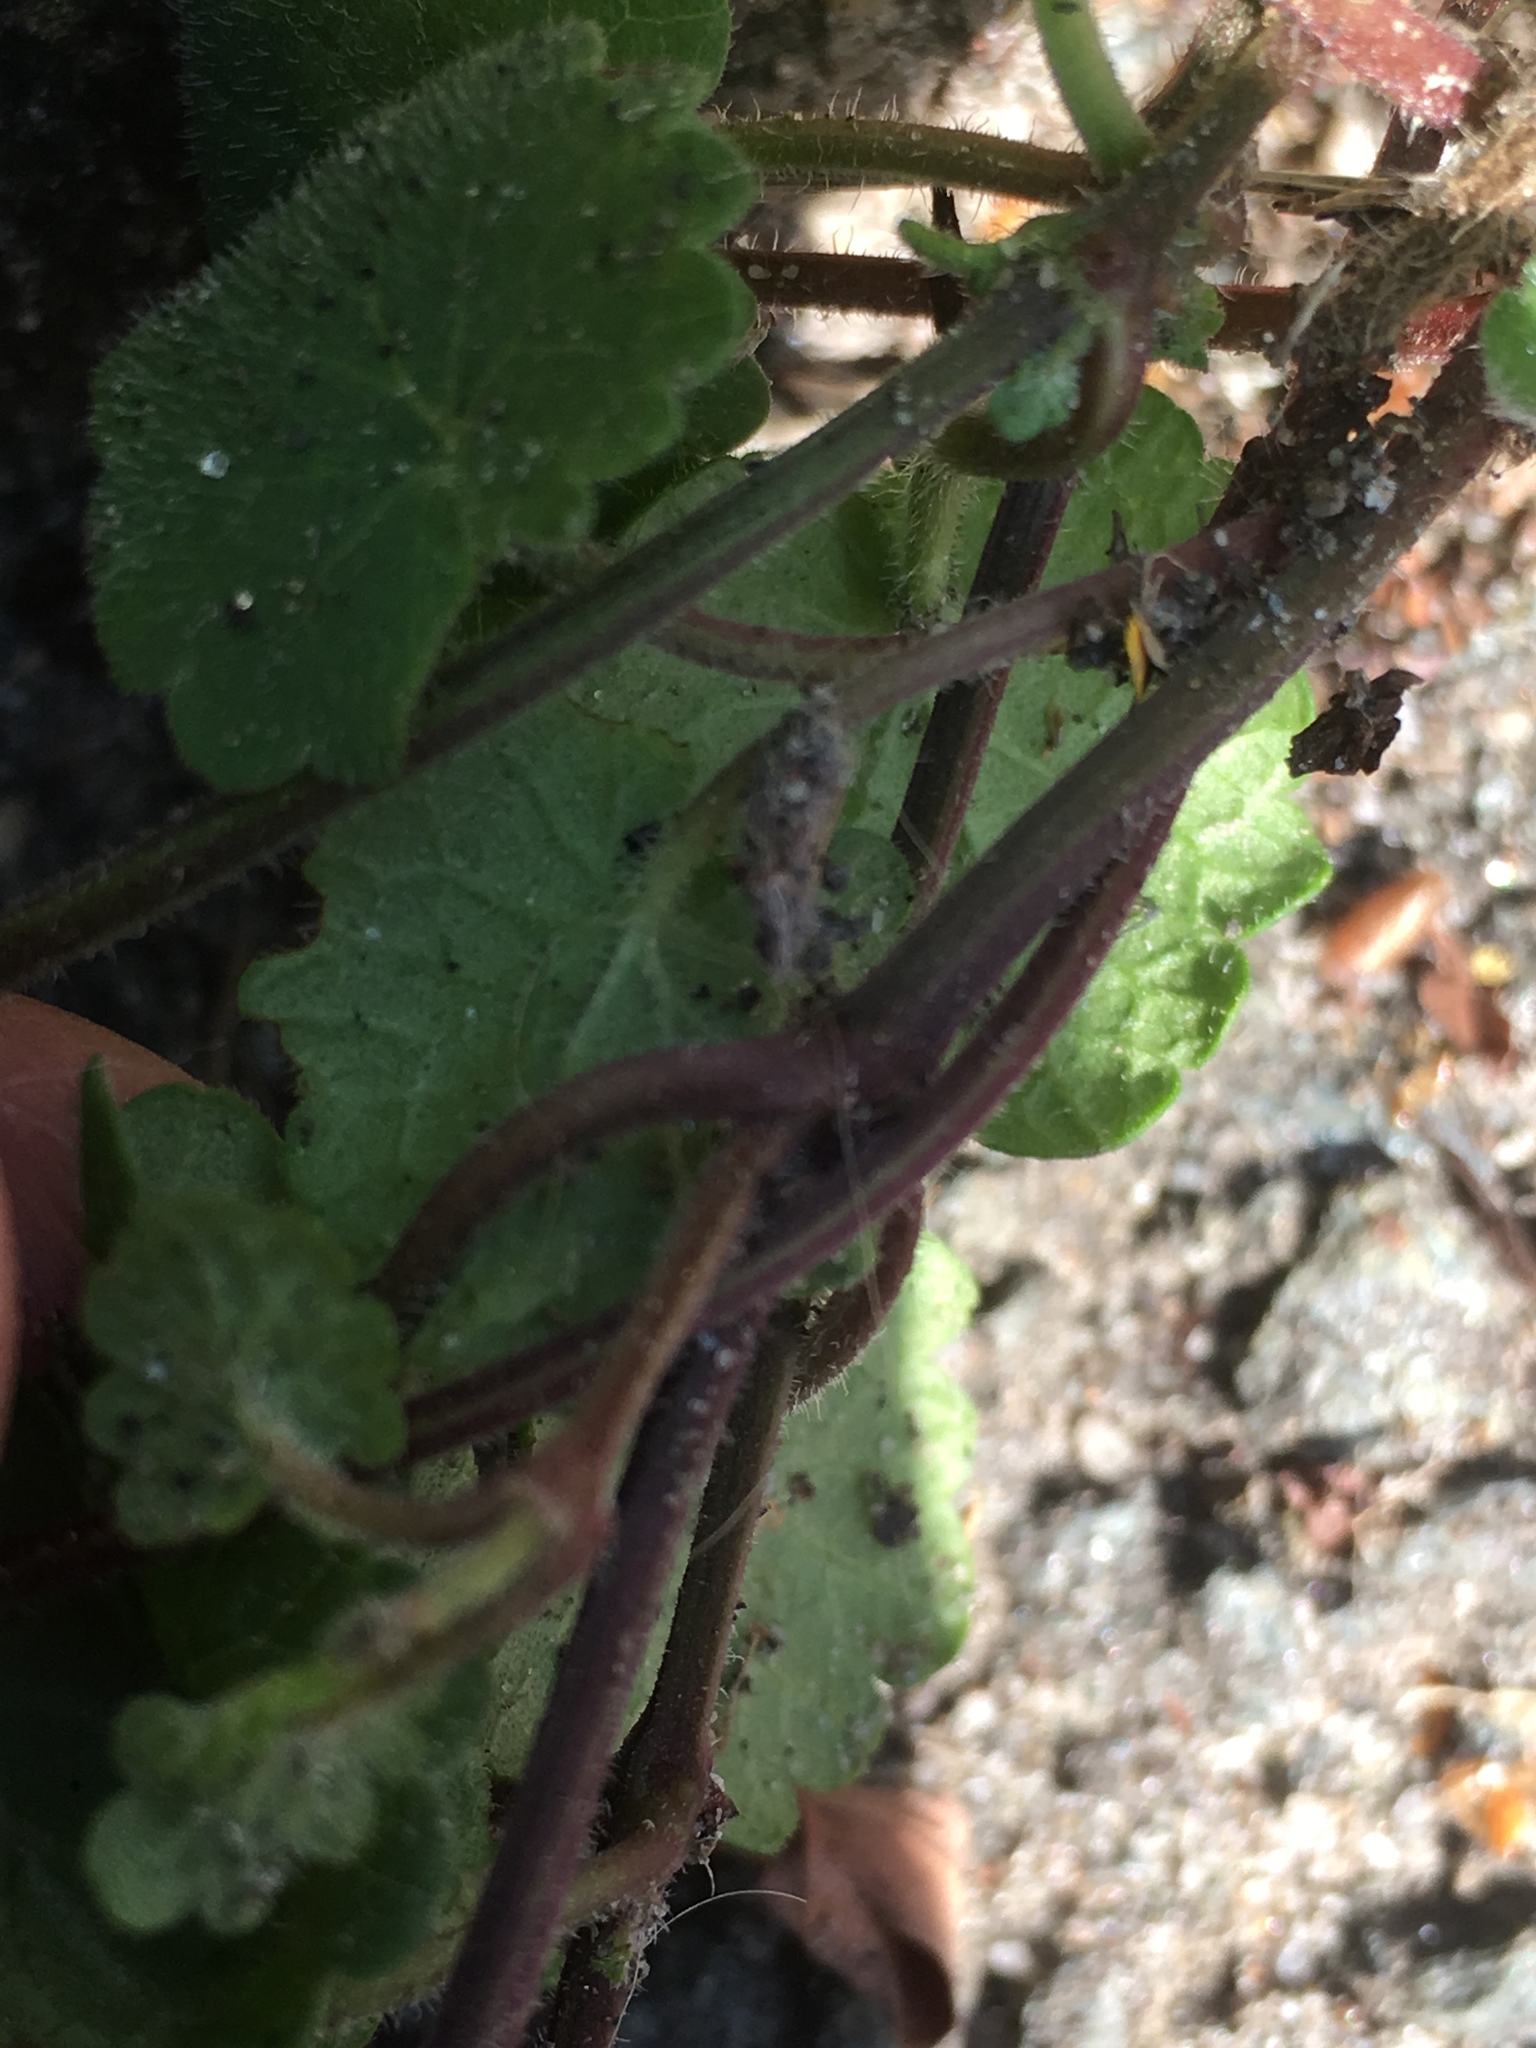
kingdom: Plantae
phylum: Tracheophyta
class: Magnoliopsida
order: Lamiales
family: Lamiaceae
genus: Glechoma
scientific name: Glechoma hederacea
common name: Ground ivy
